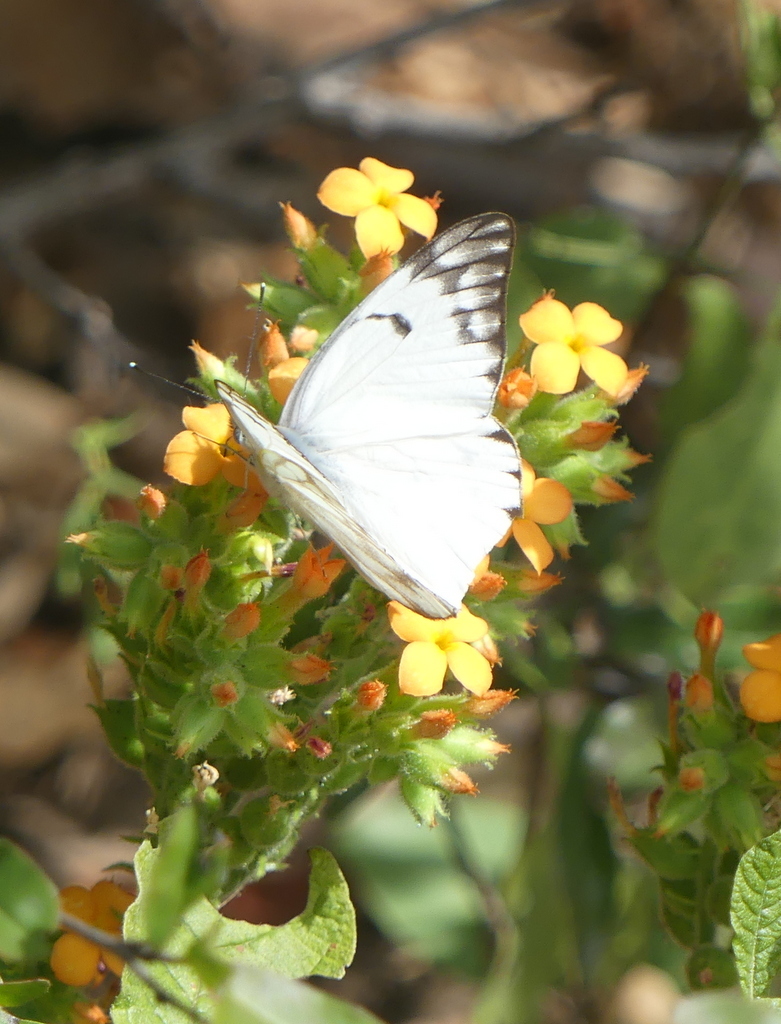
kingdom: Animalia
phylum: Arthropoda
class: Insecta
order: Lepidoptera
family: Pieridae
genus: Belenois
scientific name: Belenois gidica
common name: Pointed caper white
